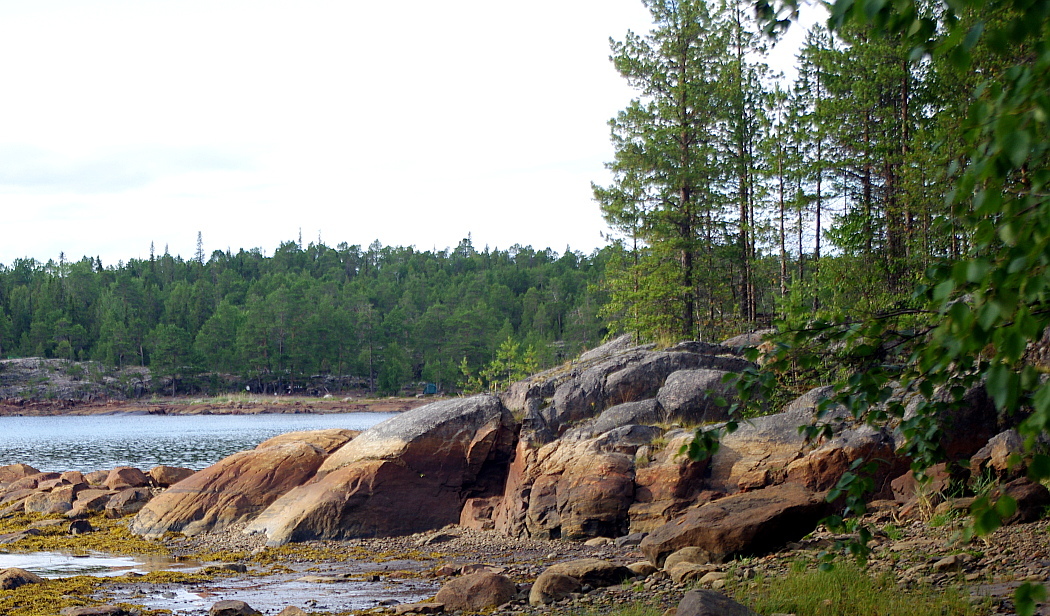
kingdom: Plantae
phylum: Tracheophyta
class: Pinopsida
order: Pinales
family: Pinaceae
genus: Pinus
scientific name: Pinus sylvestris
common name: Scots pine
